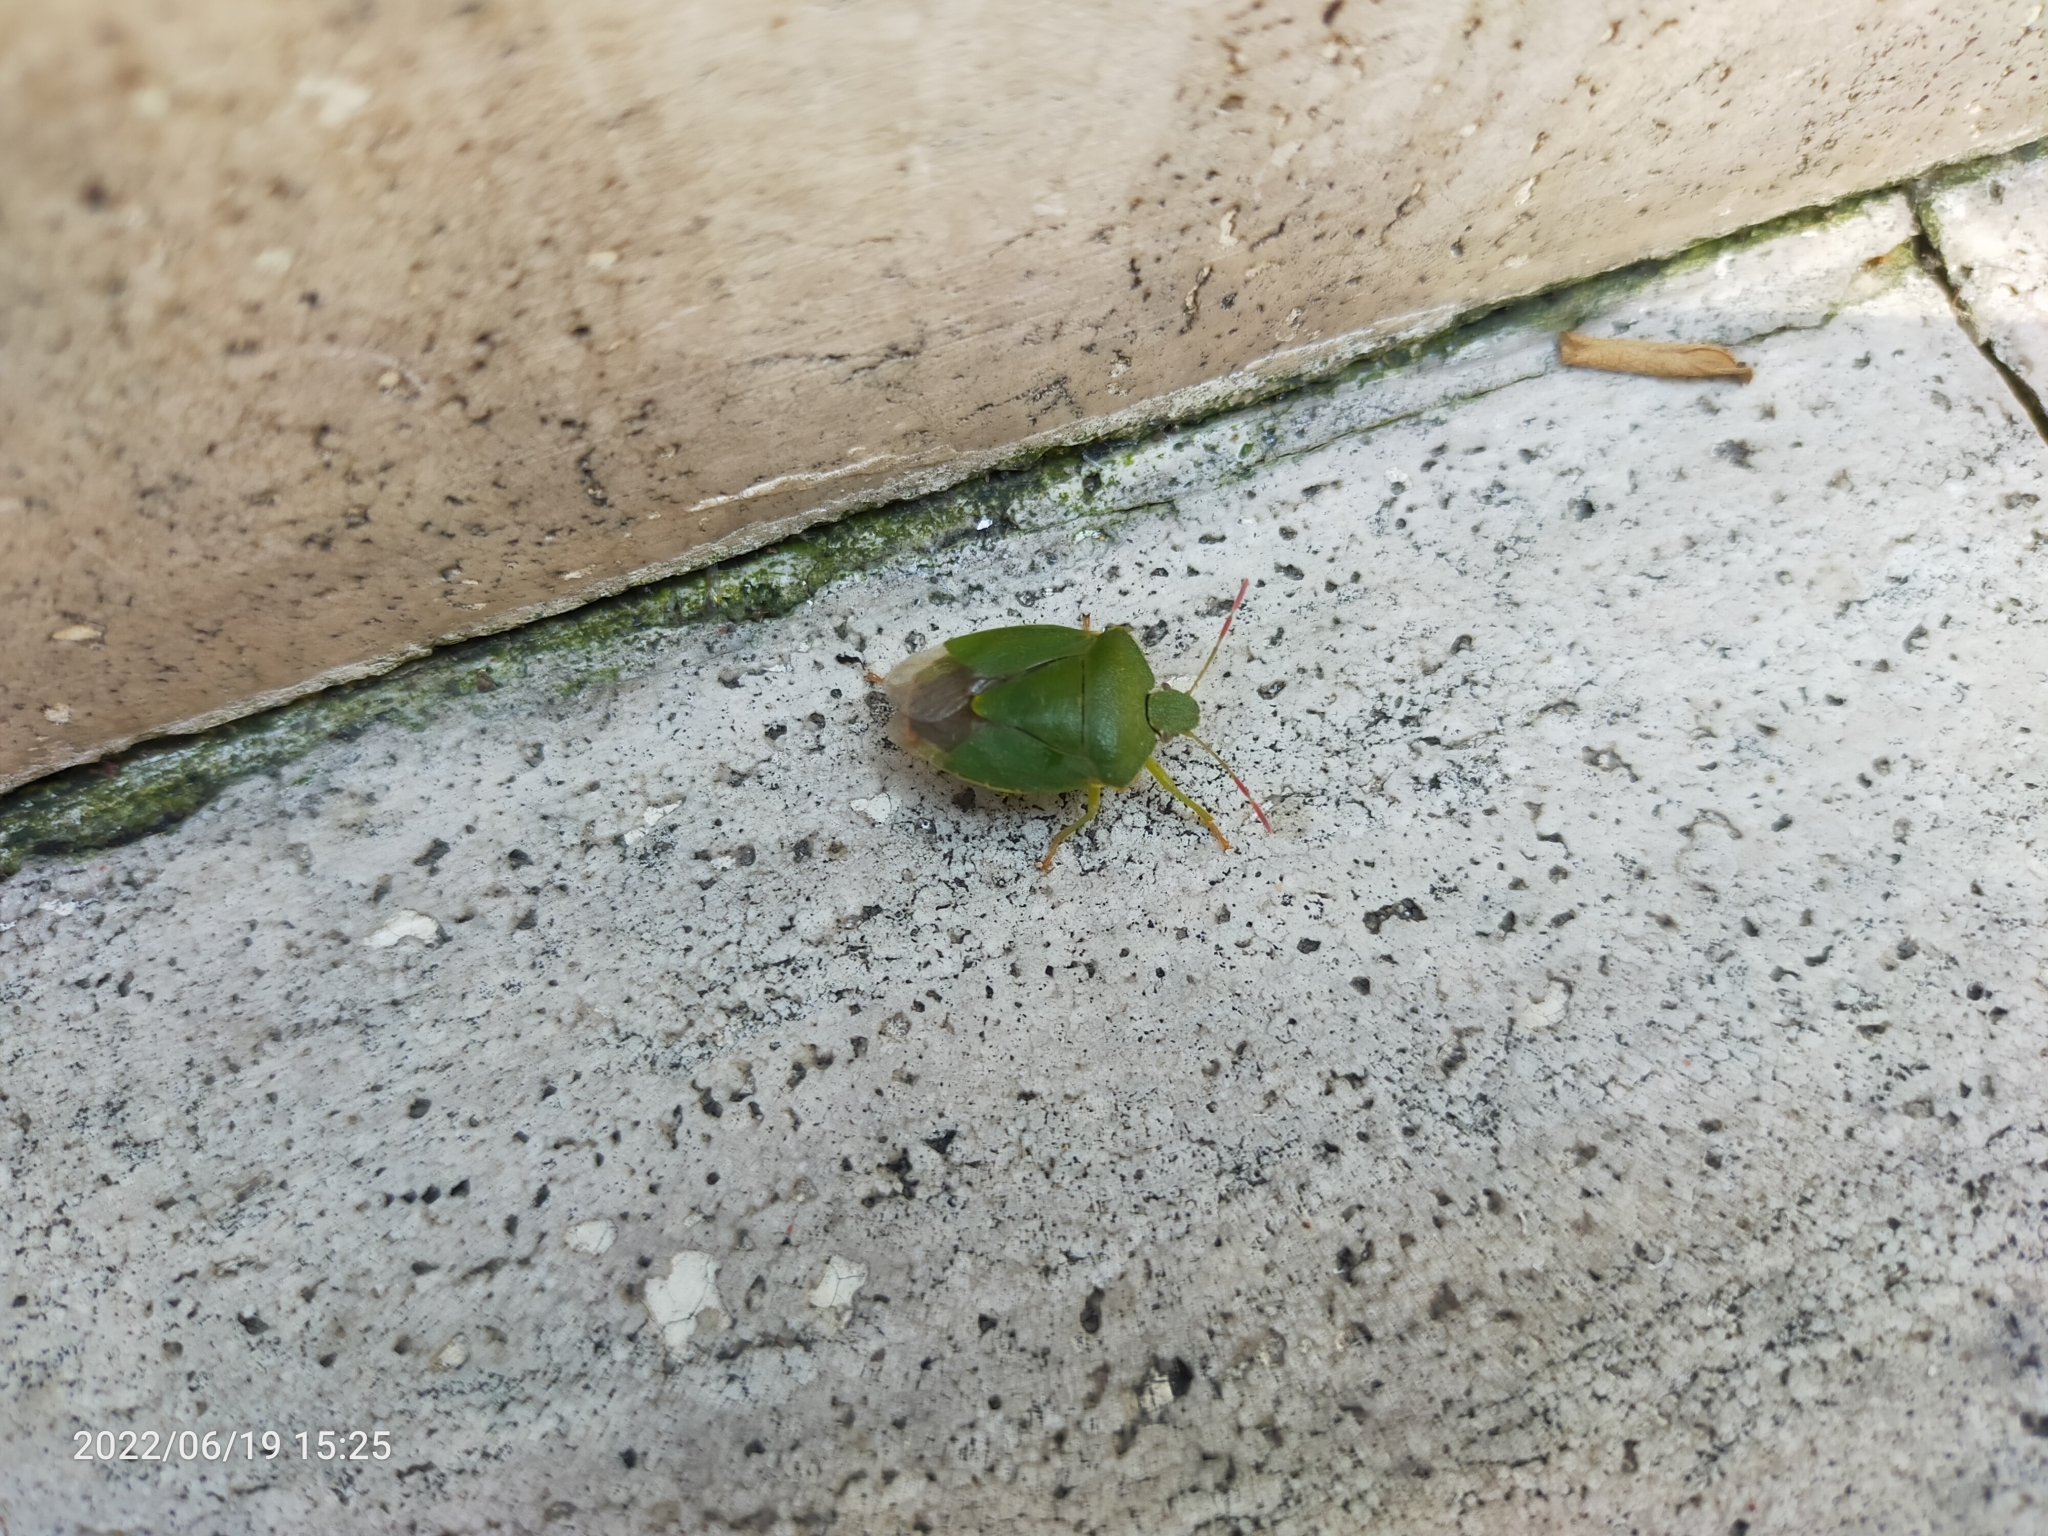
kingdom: Animalia
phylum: Arthropoda
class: Insecta
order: Hemiptera
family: Pentatomidae
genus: Palomena
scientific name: Palomena prasina
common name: Green shieldbug
